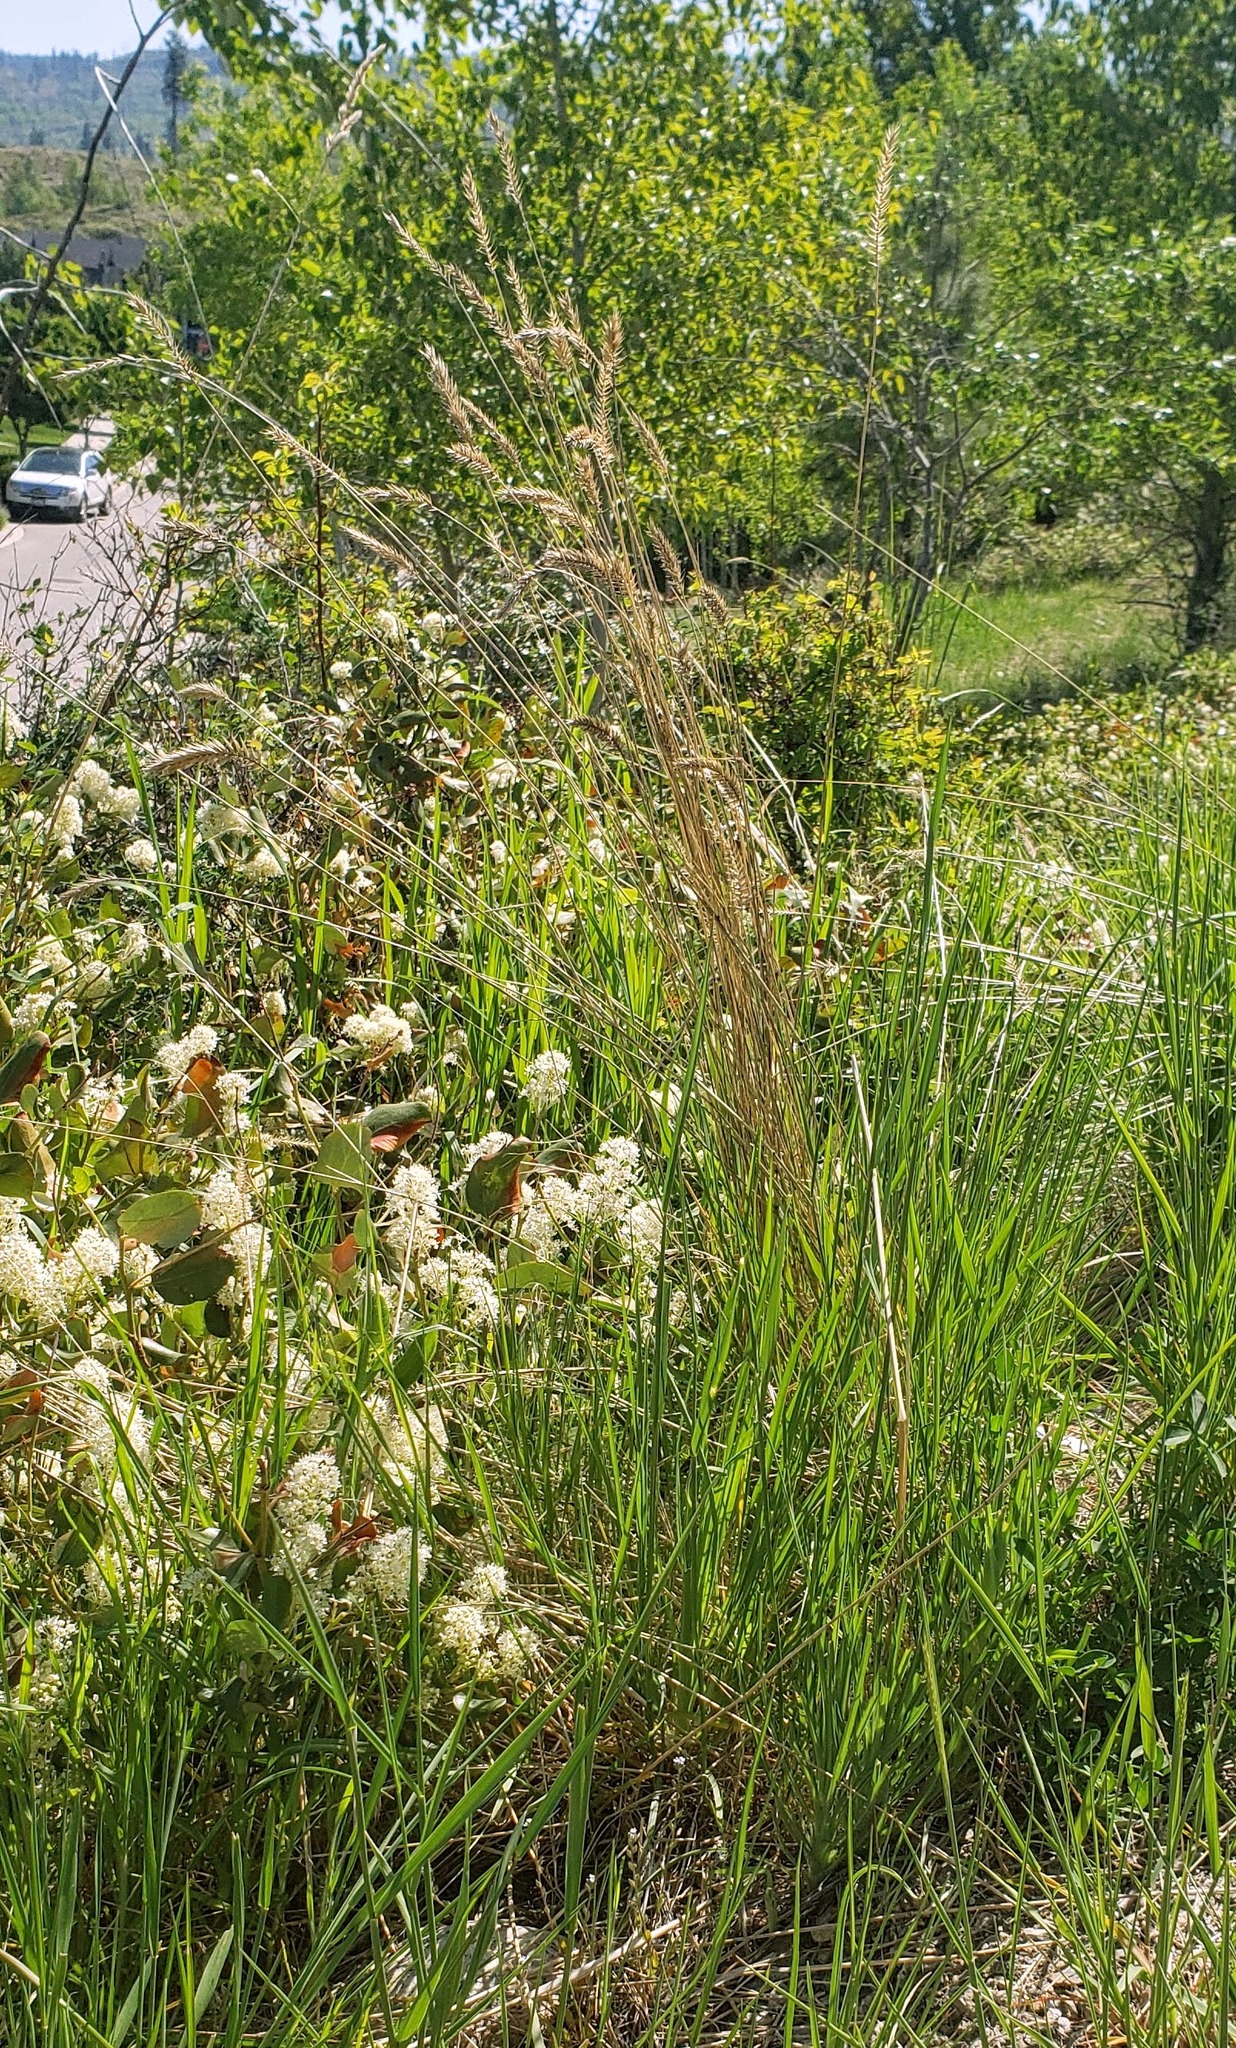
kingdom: Plantae
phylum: Tracheophyta
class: Liliopsida
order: Poales
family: Poaceae
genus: Agropyron
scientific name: Agropyron cristatum
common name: Crested wheatgrass
